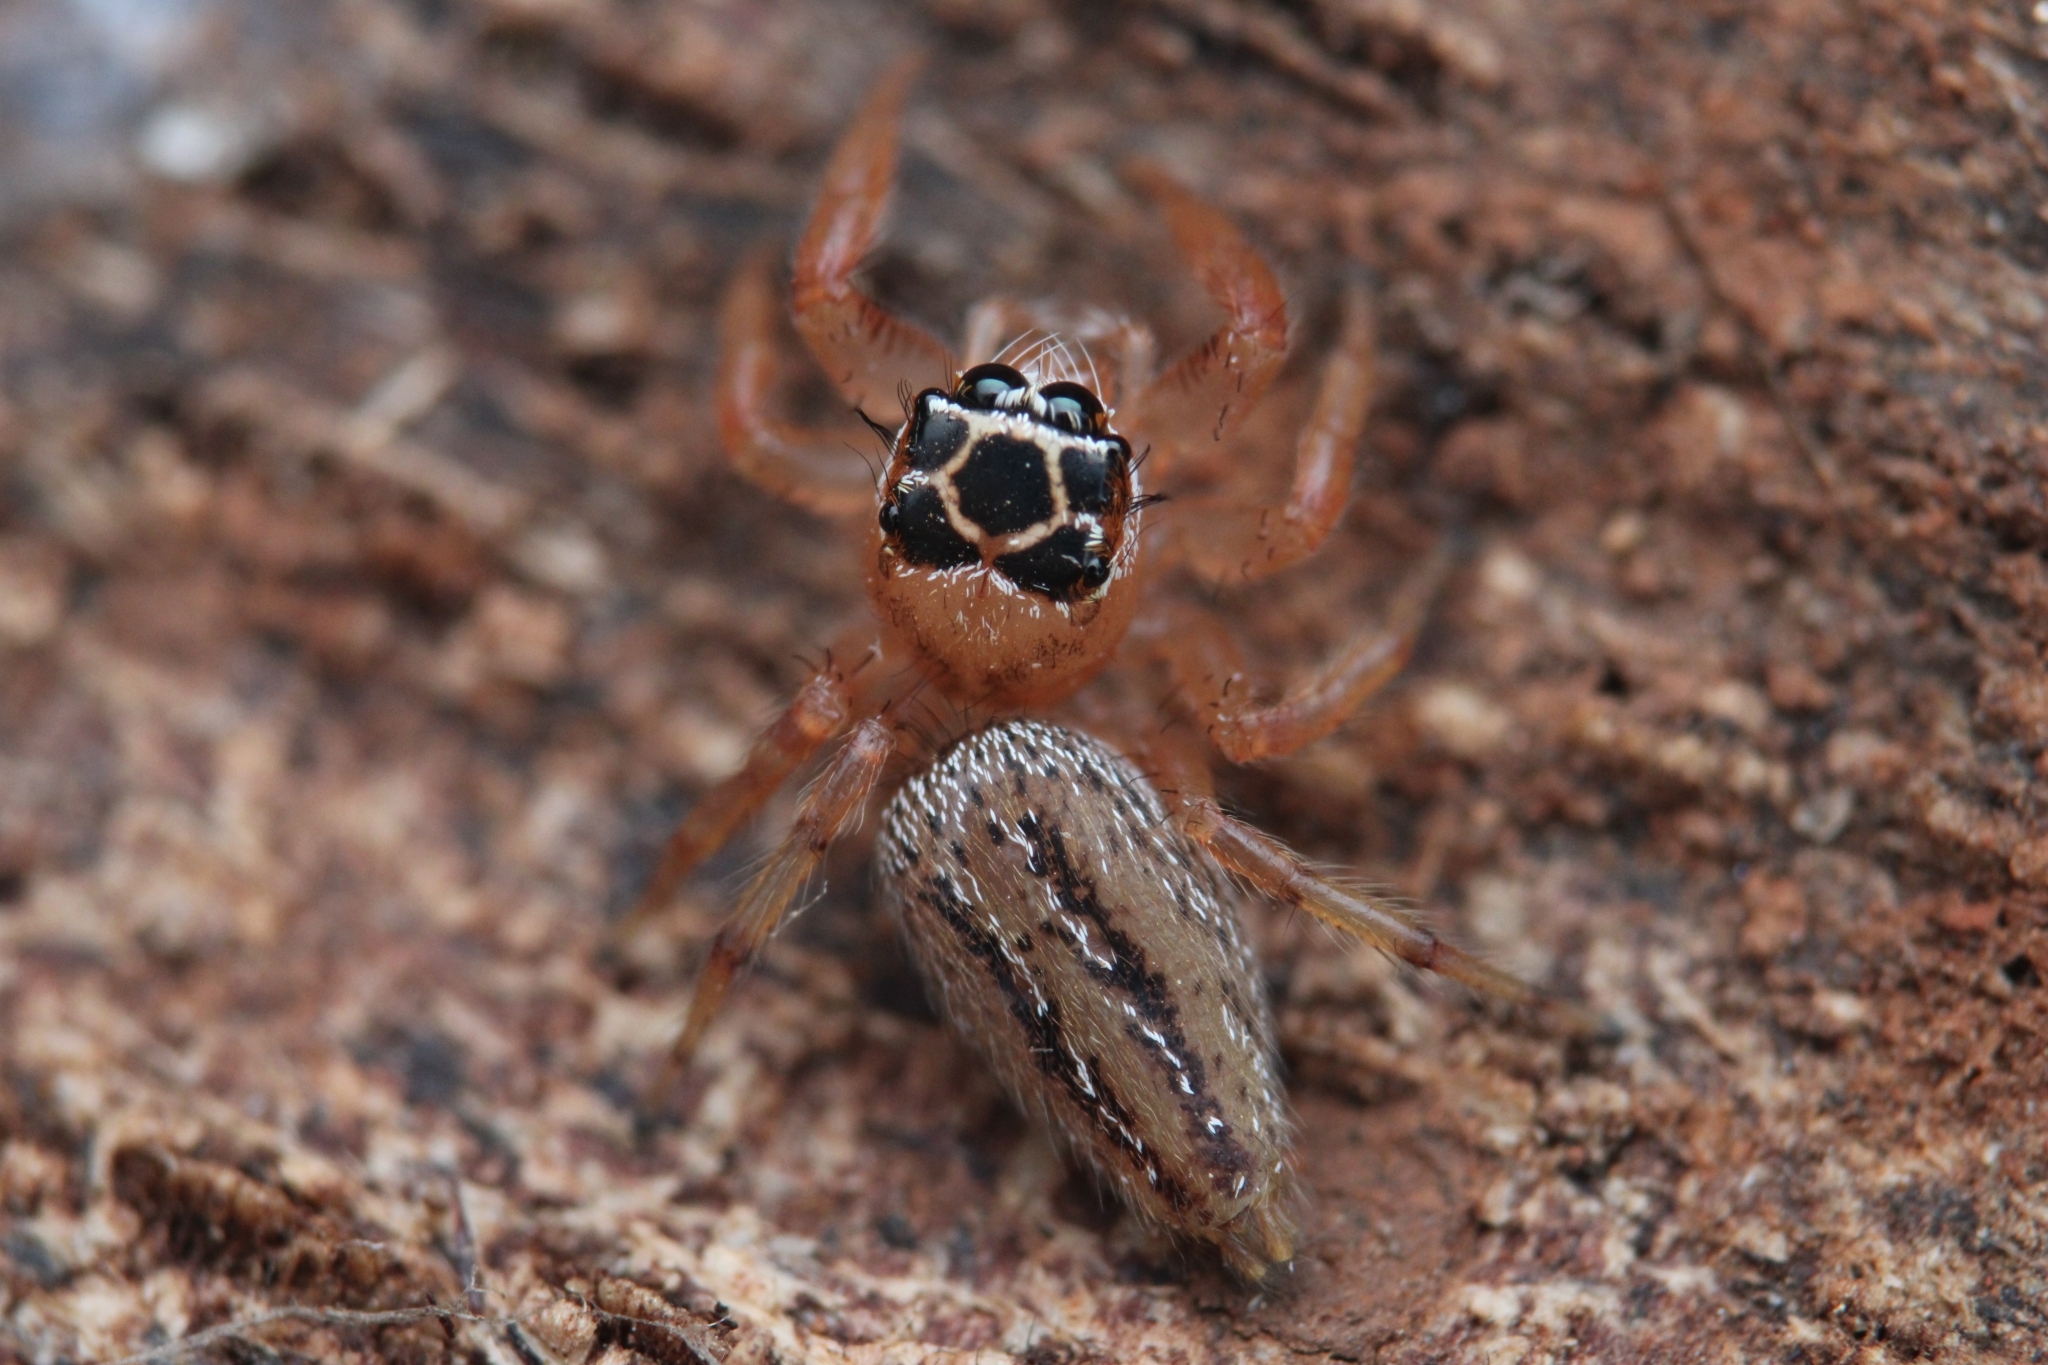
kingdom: Animalia
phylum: Arthropoda
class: Arachnida
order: Araneae
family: Salticidae
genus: Thyene
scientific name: Thyene mutica
